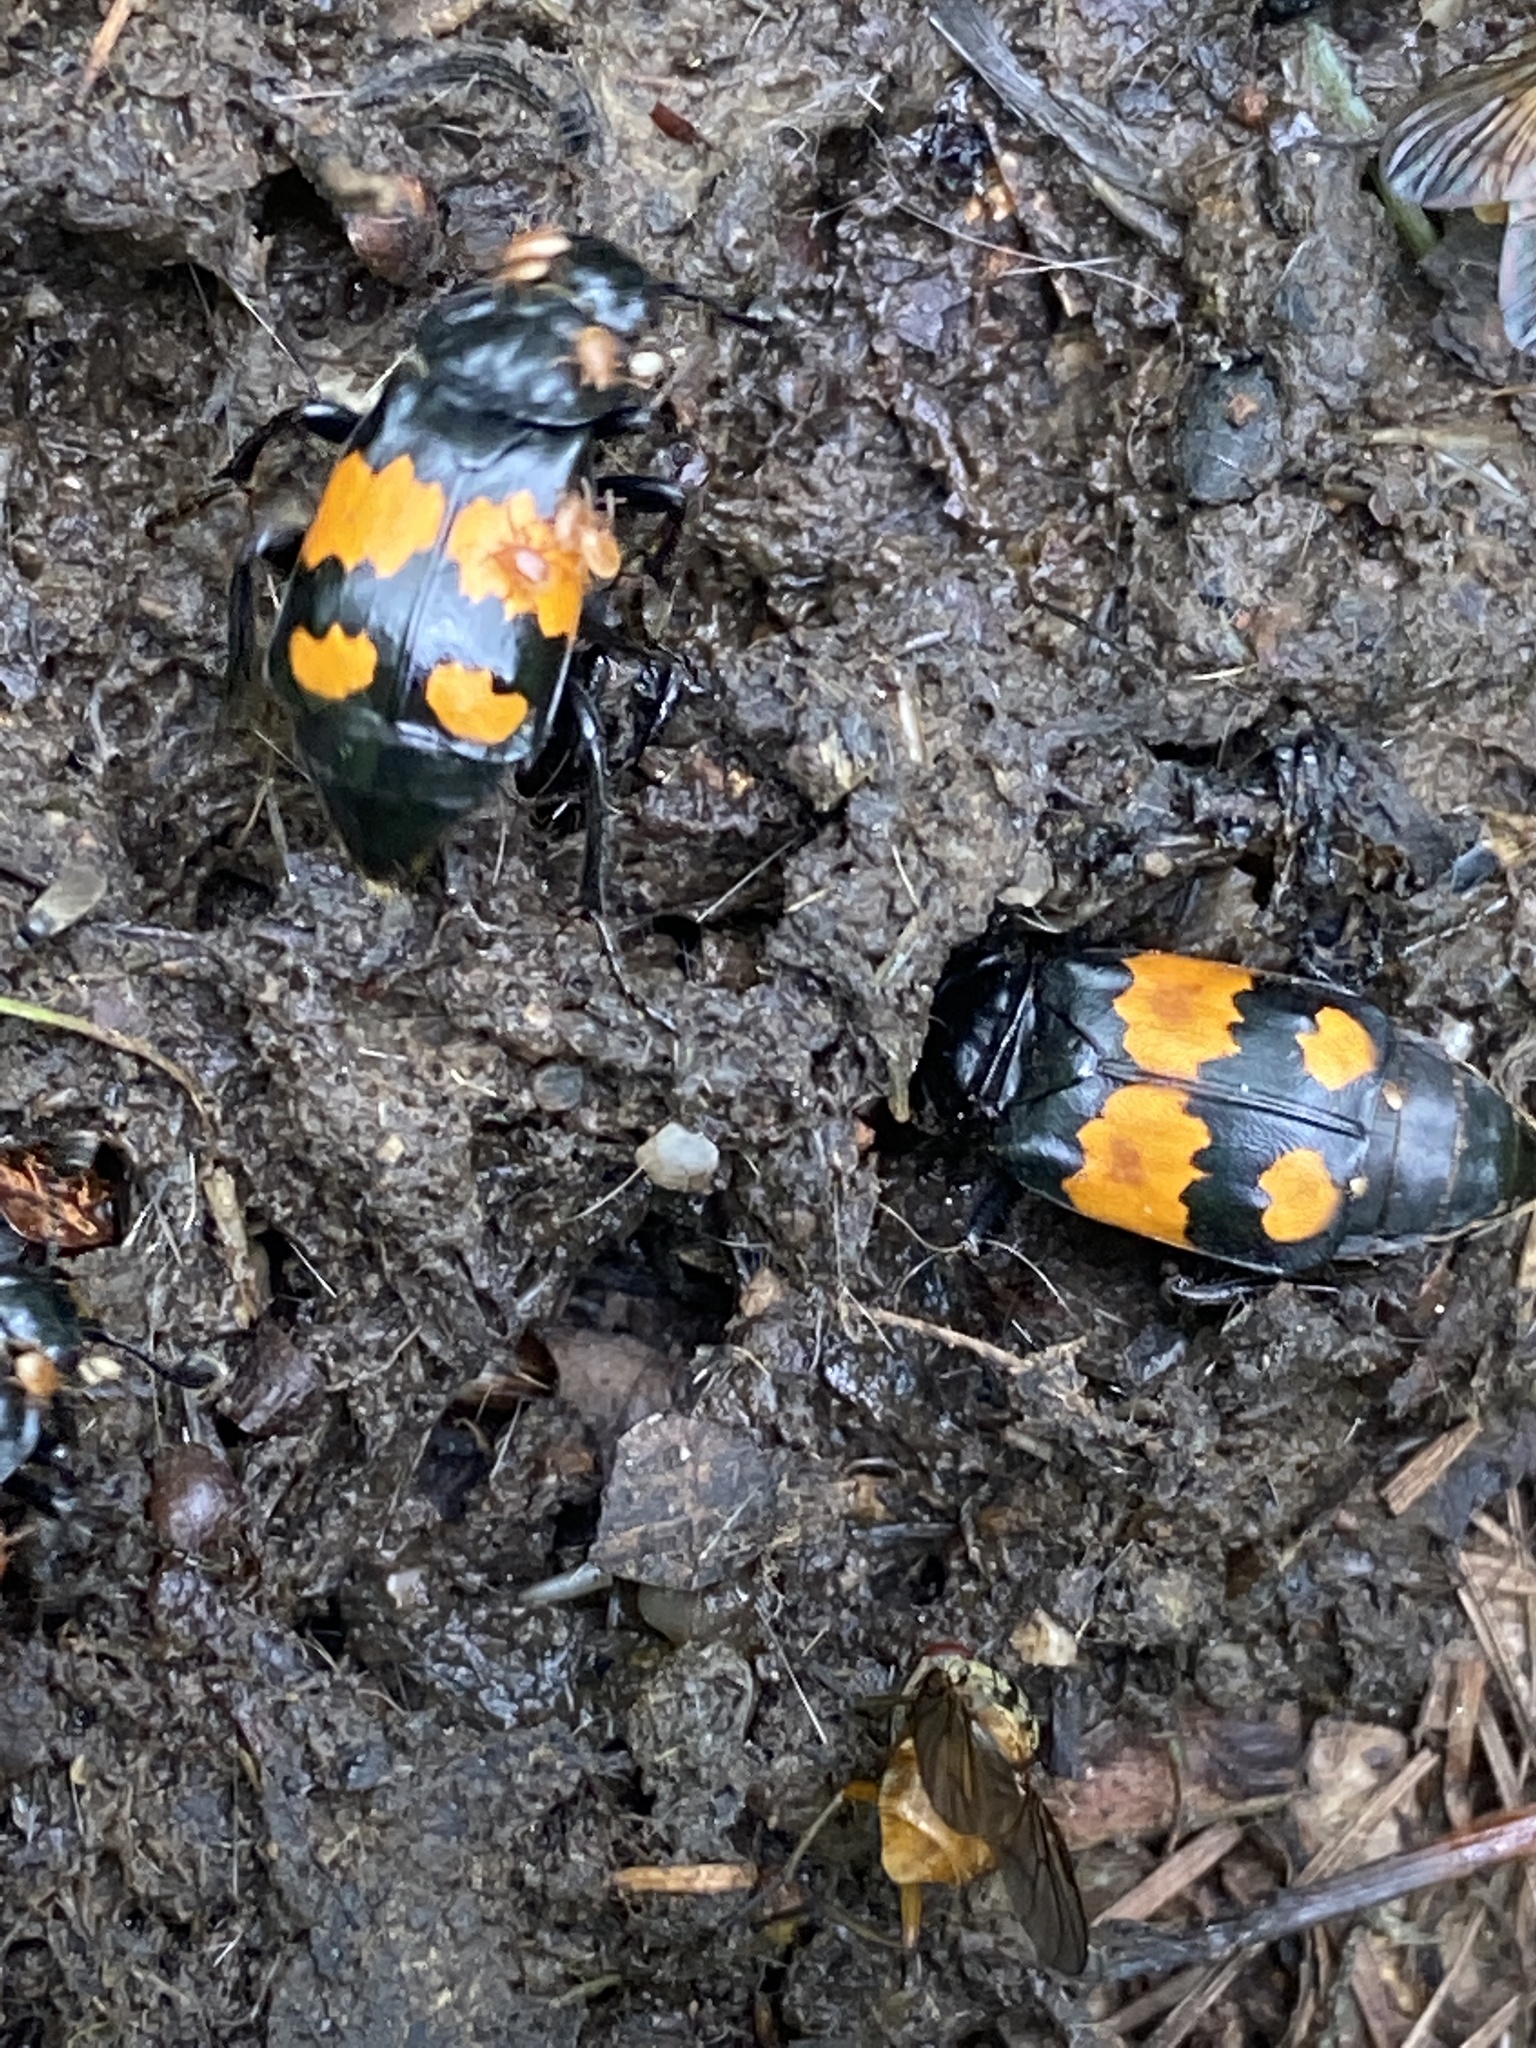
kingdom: Animalia
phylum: Arthropoda
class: Insecta
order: Coleoptera
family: Staphylinidae
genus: Nicrophorus
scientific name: Nicrophorus vespilloides
